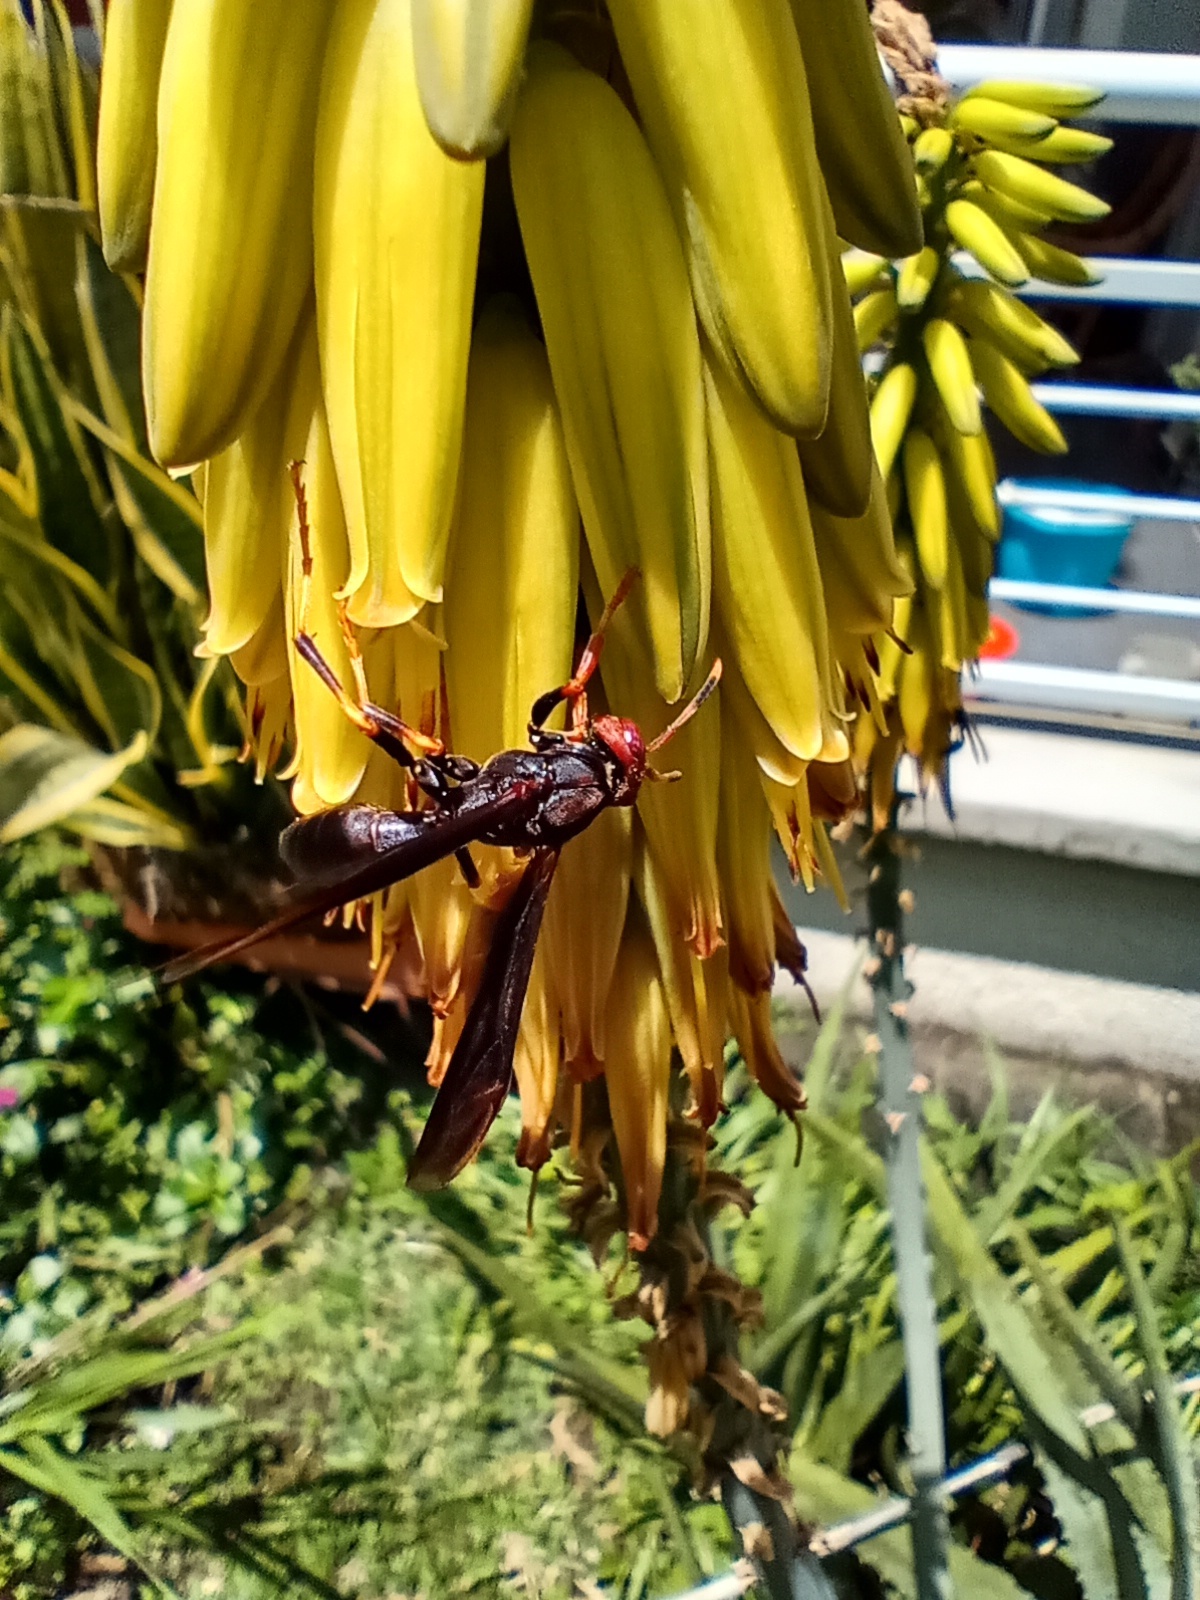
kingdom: Animalia
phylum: Arthropoda
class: Insecta
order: Hymenoptera
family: Eumenidae
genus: Polistes
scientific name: Polistes erythrocephalus
